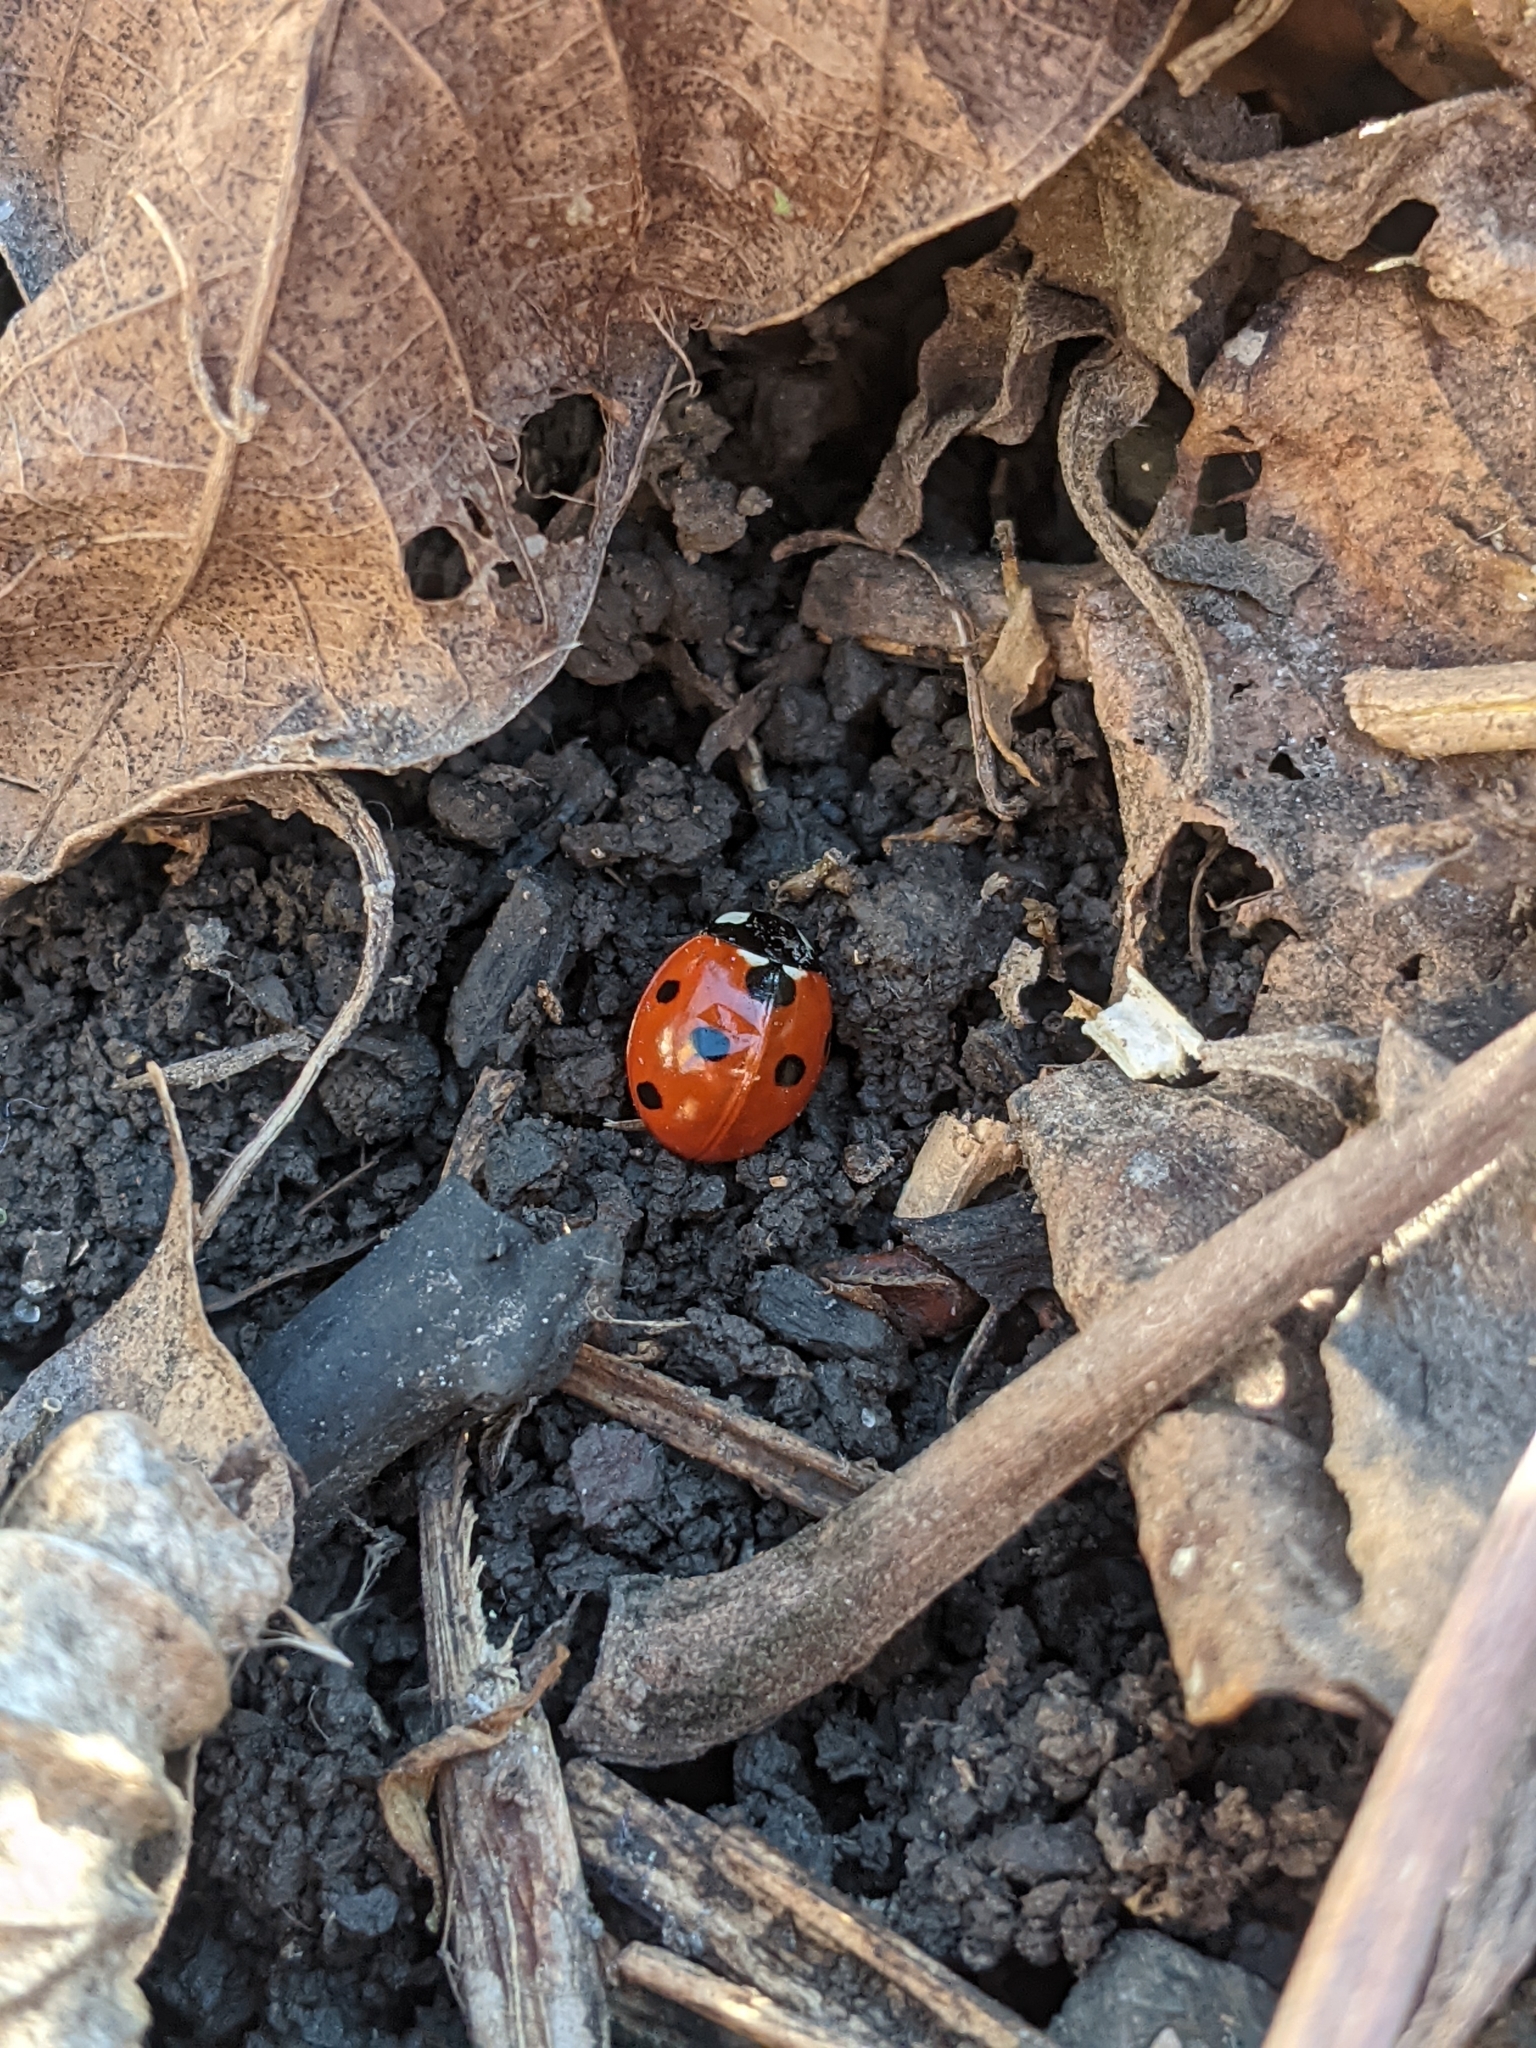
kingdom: Animalia
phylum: Arthropoda
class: Insecta
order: Coleoptera
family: Coccinellidae
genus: Coccinella
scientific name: Coccinella septempunctata
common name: Sevenspotted lady beetle
